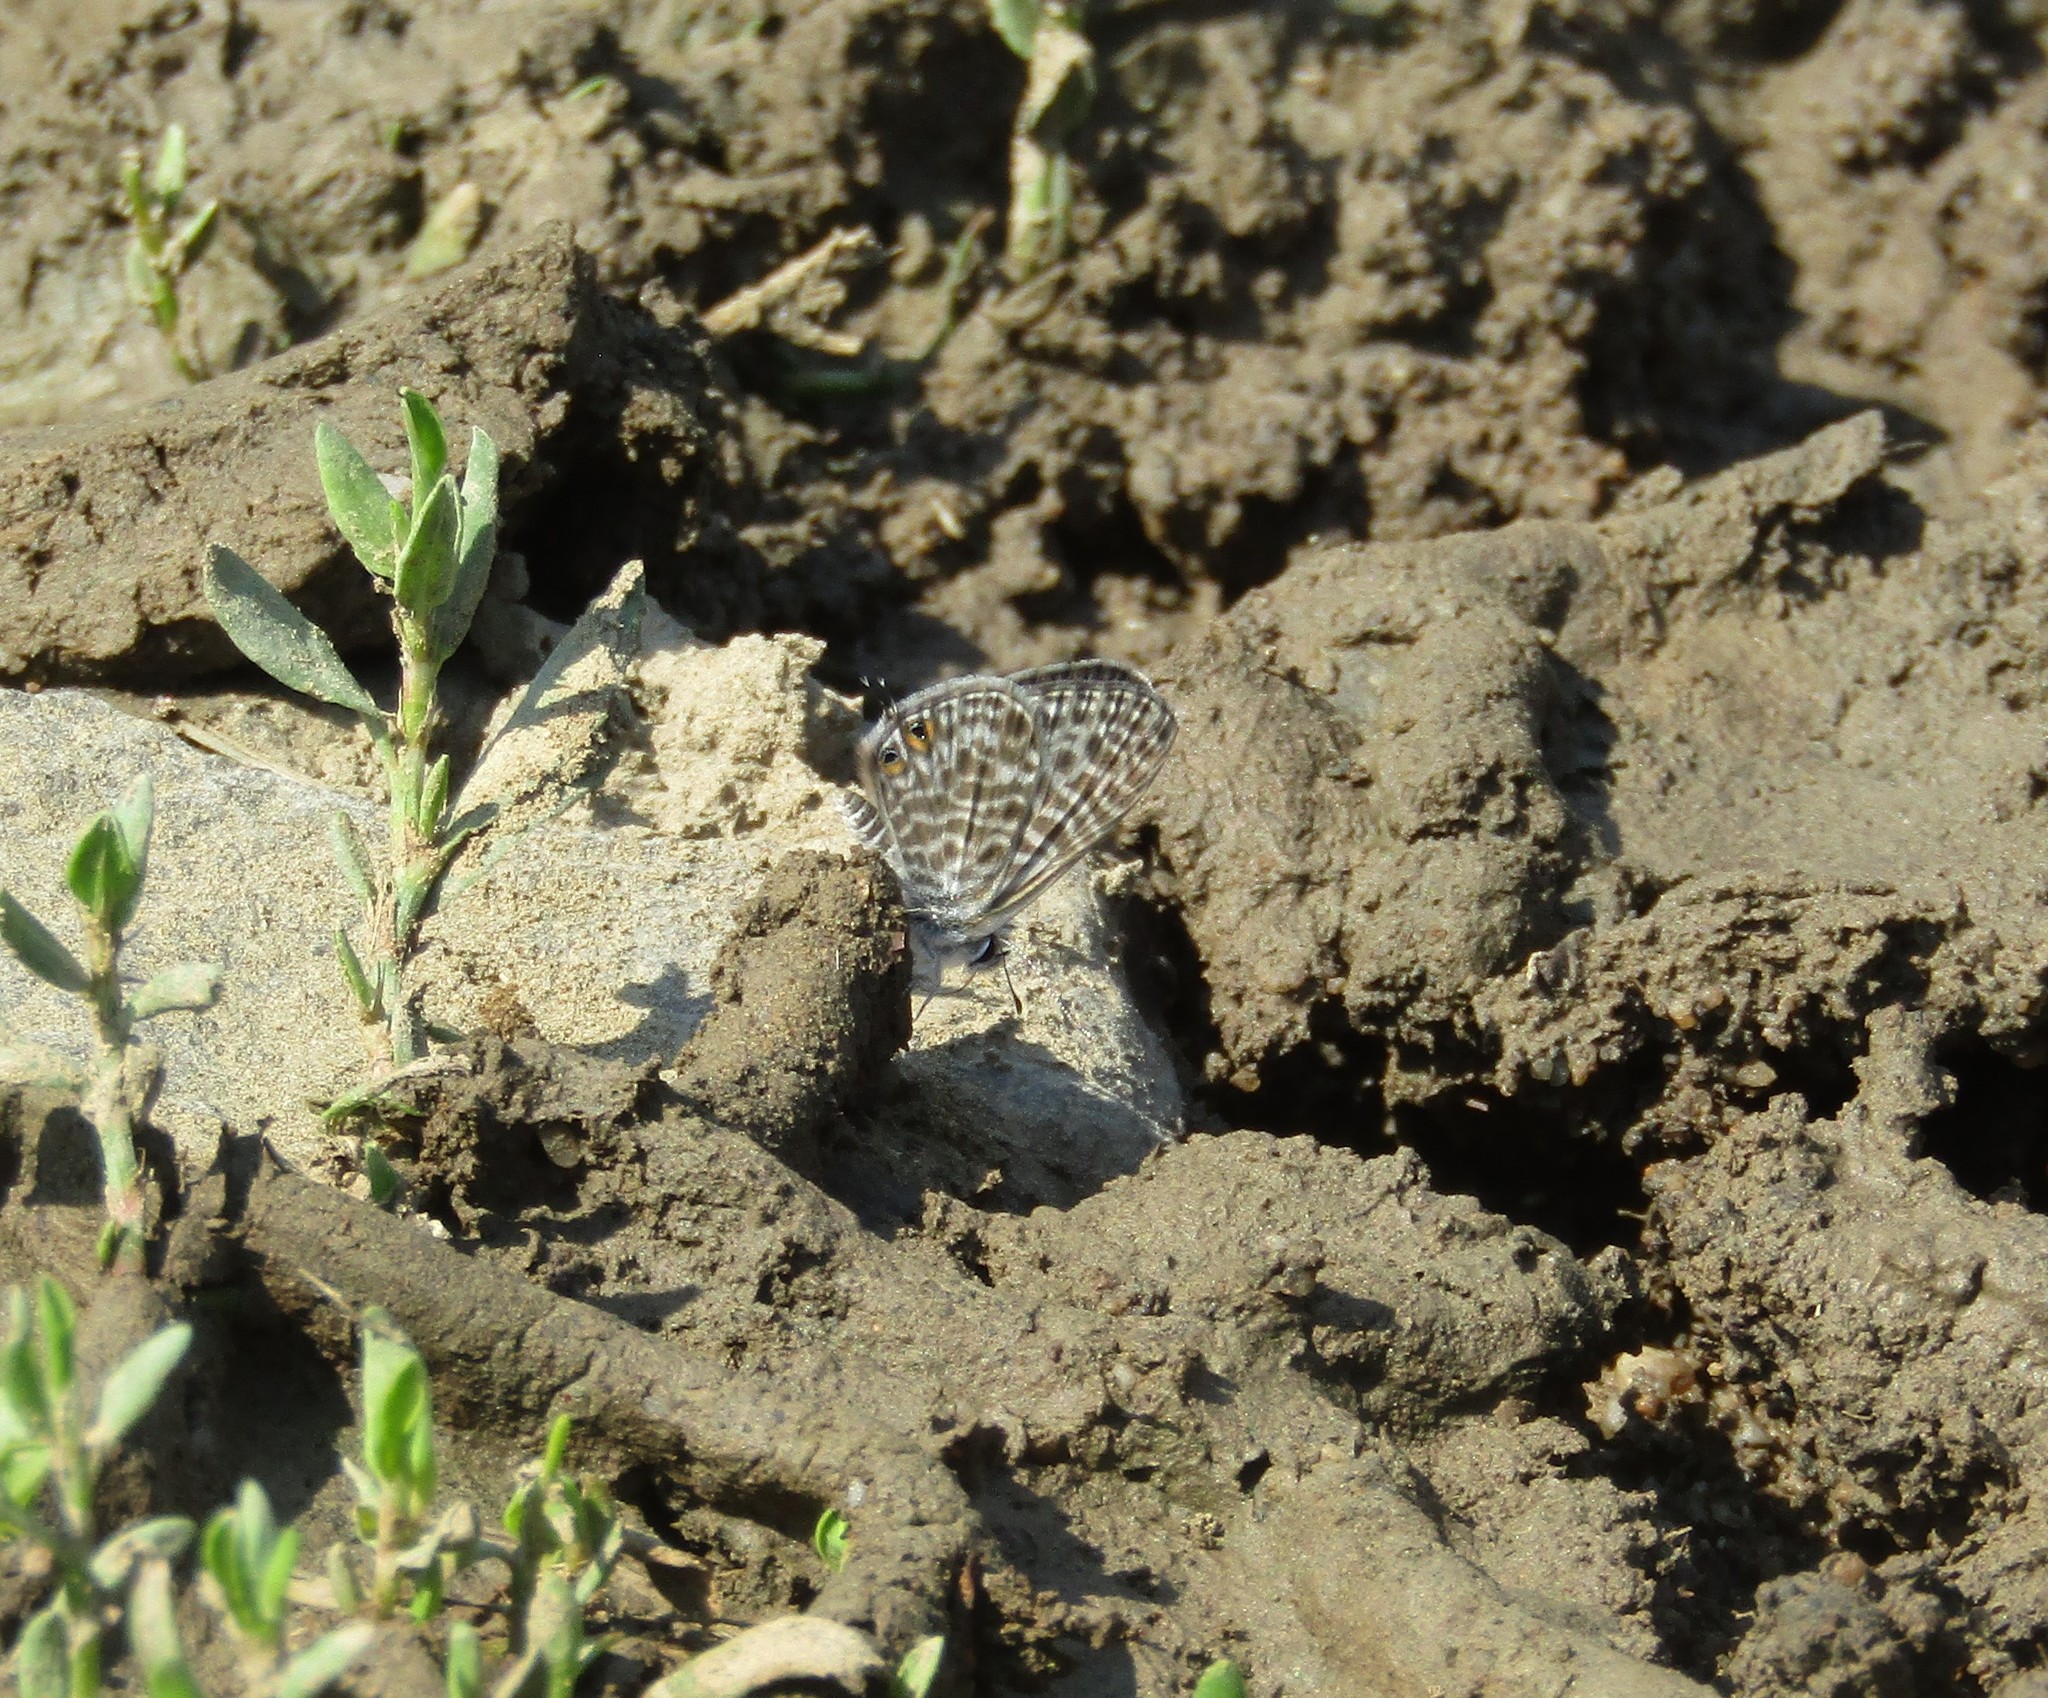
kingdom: Animalia
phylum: Arthropoda
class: Insecta
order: Lepidoptera
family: Lycaenidae
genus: Leptotes
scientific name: Leptotes pirithous
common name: Lang's short-tailed blue
